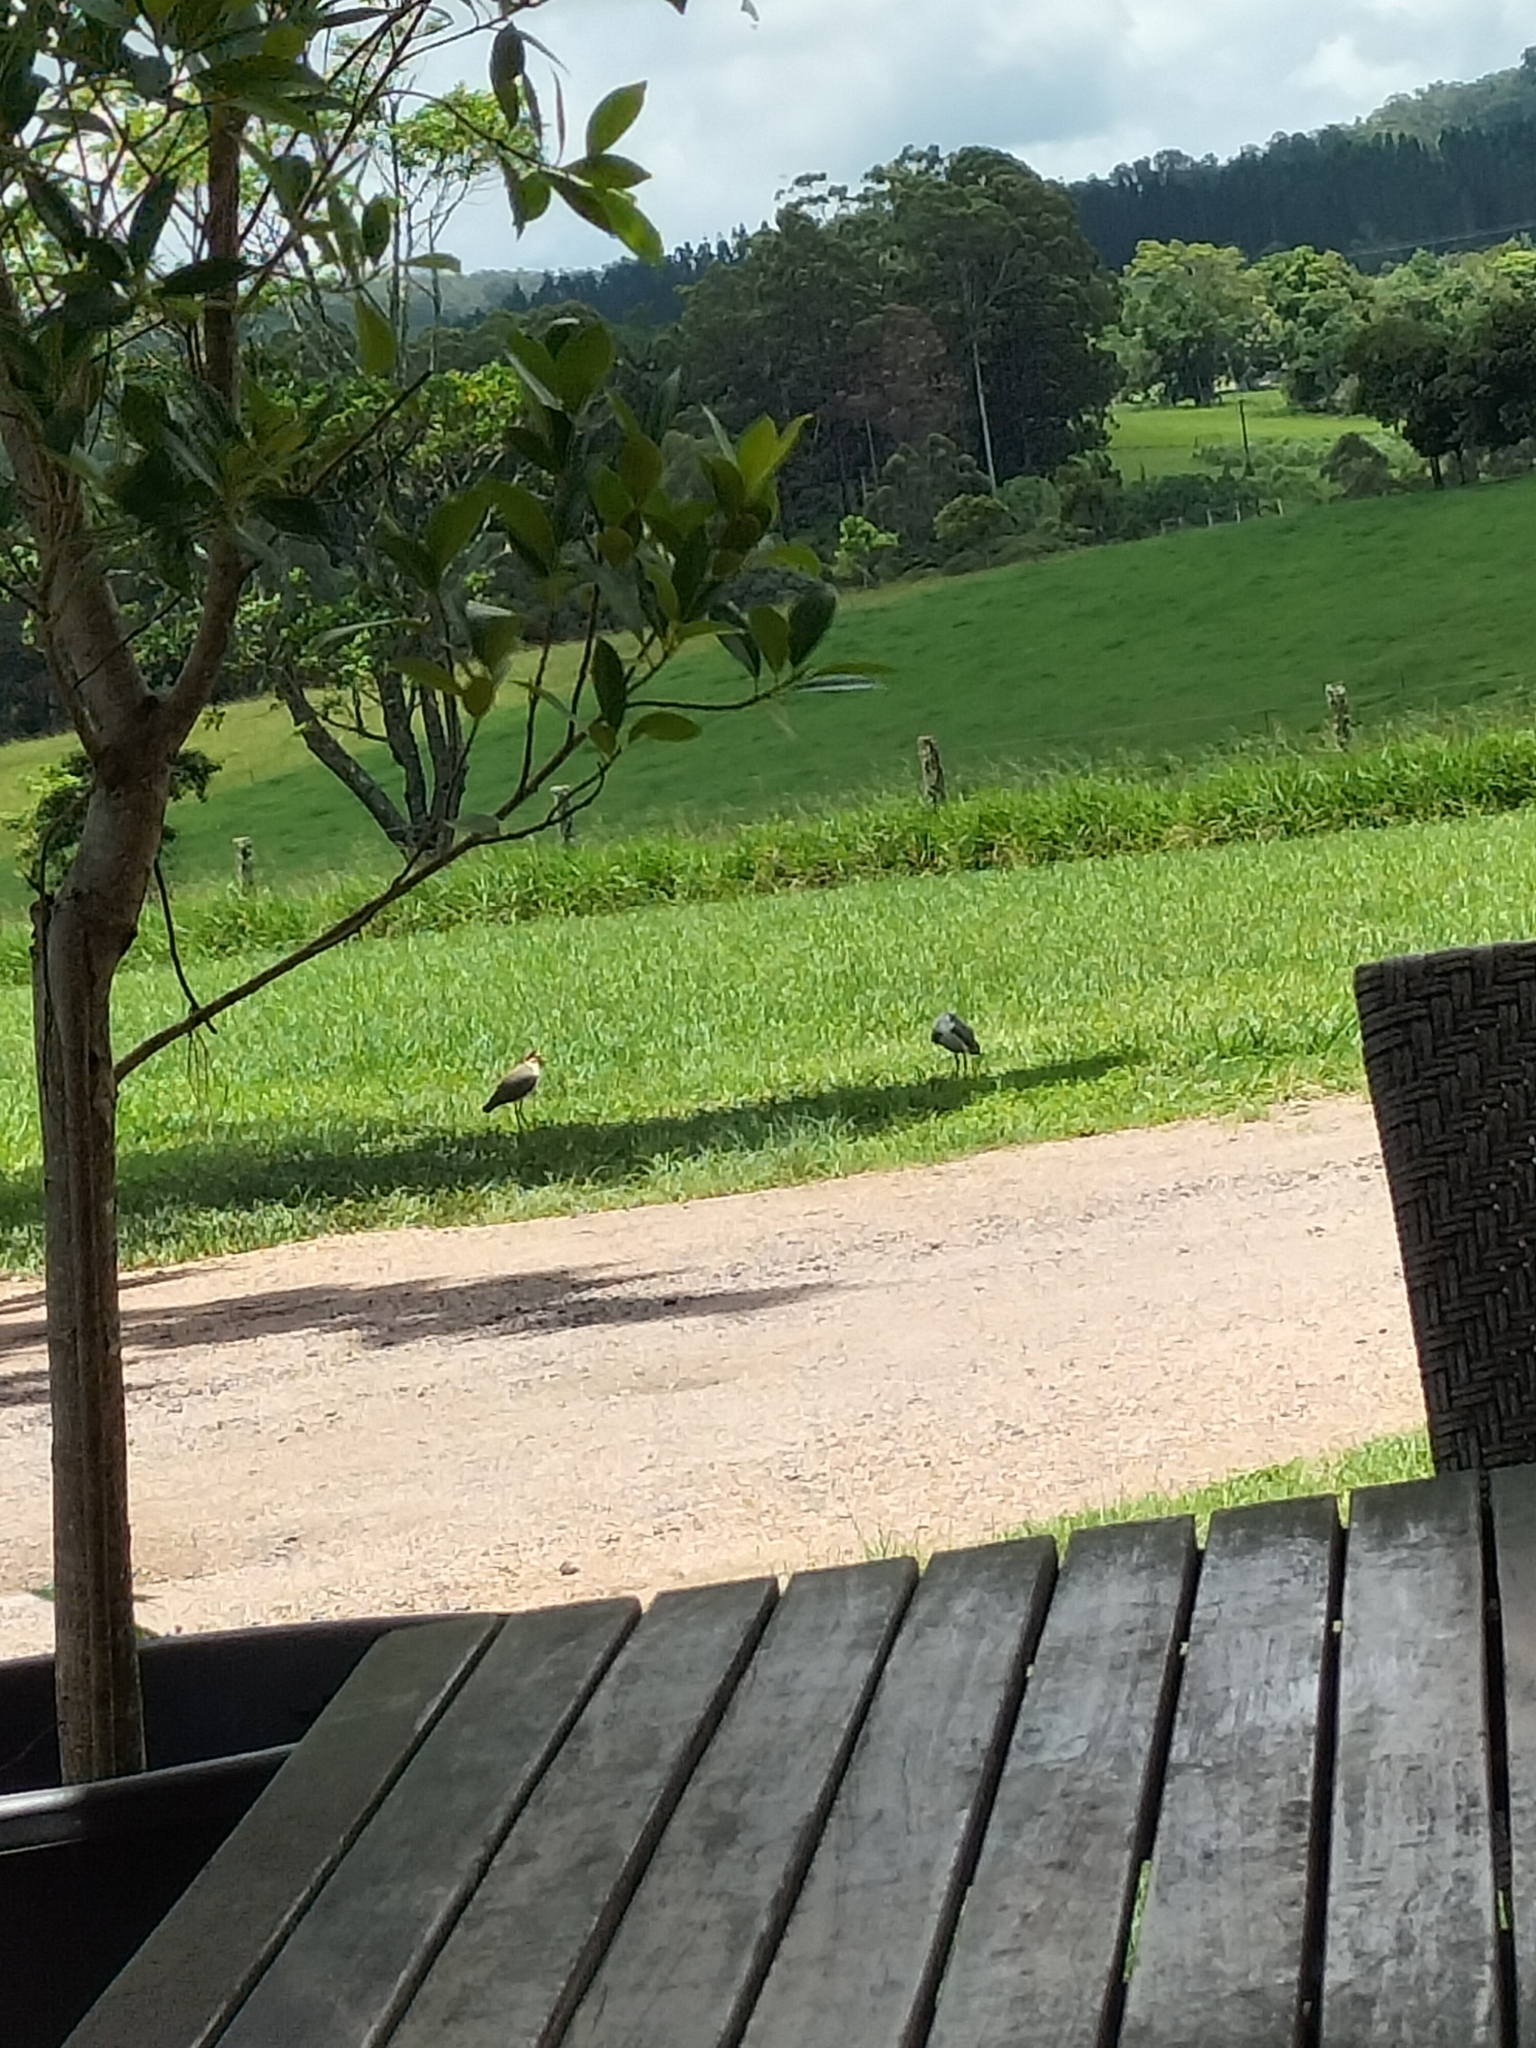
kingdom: Animalia
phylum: Chordata
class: Aves
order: Charadriiformes
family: Charadriidae
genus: Vanellus
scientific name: Vanellus miles
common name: Masked lapwing
